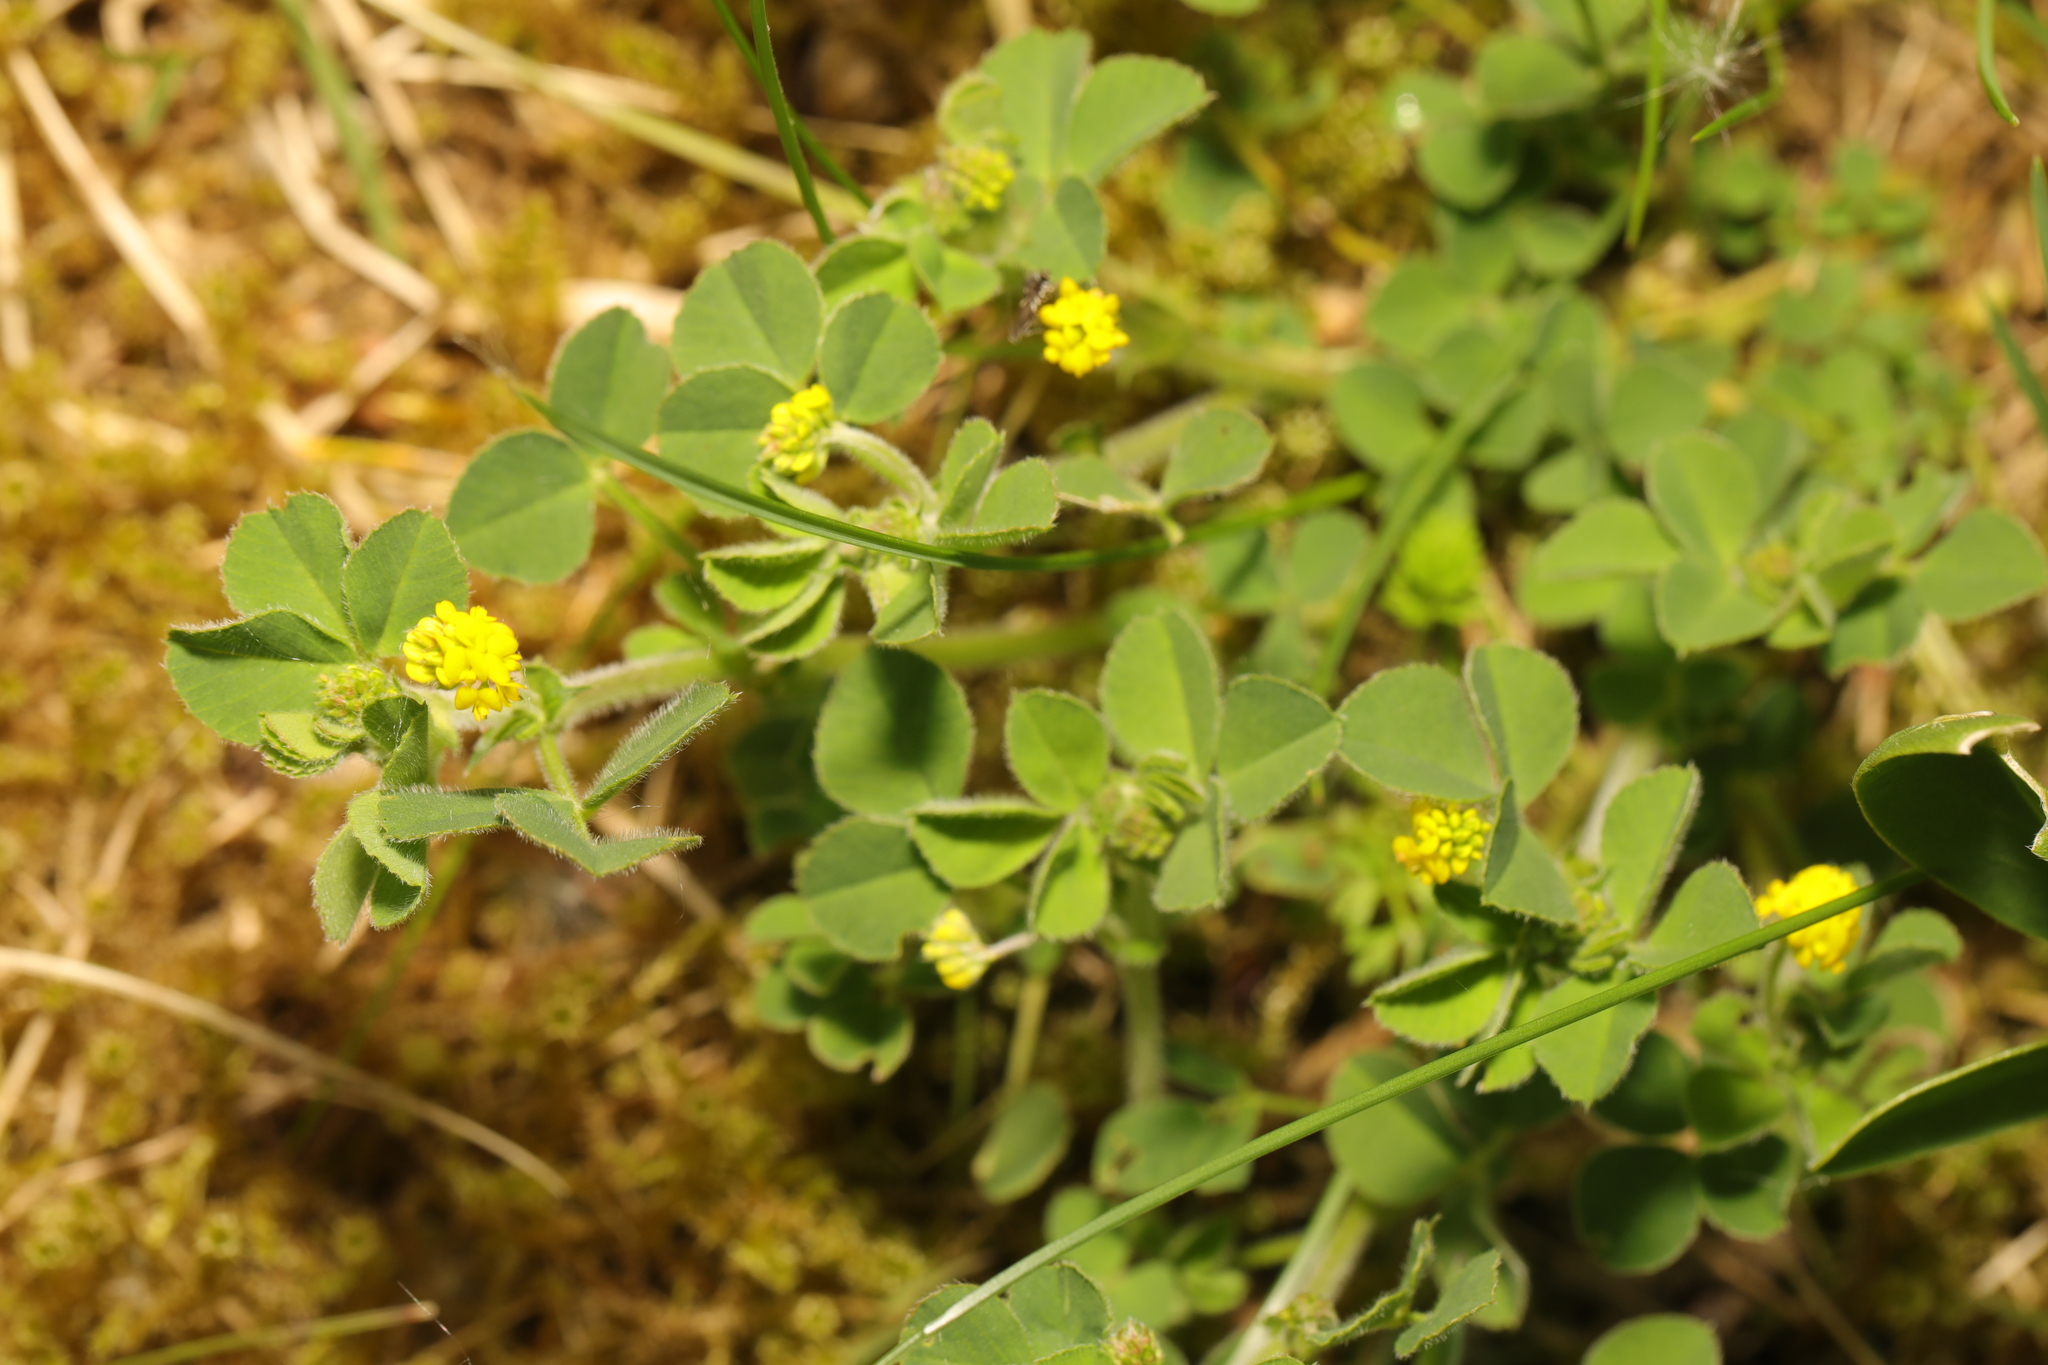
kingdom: Plantae
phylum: Tracheophyta
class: Magnoliopsida
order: Fabales
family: Fabaceae
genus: Medicago
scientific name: Medicago lupulina
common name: Black medick
